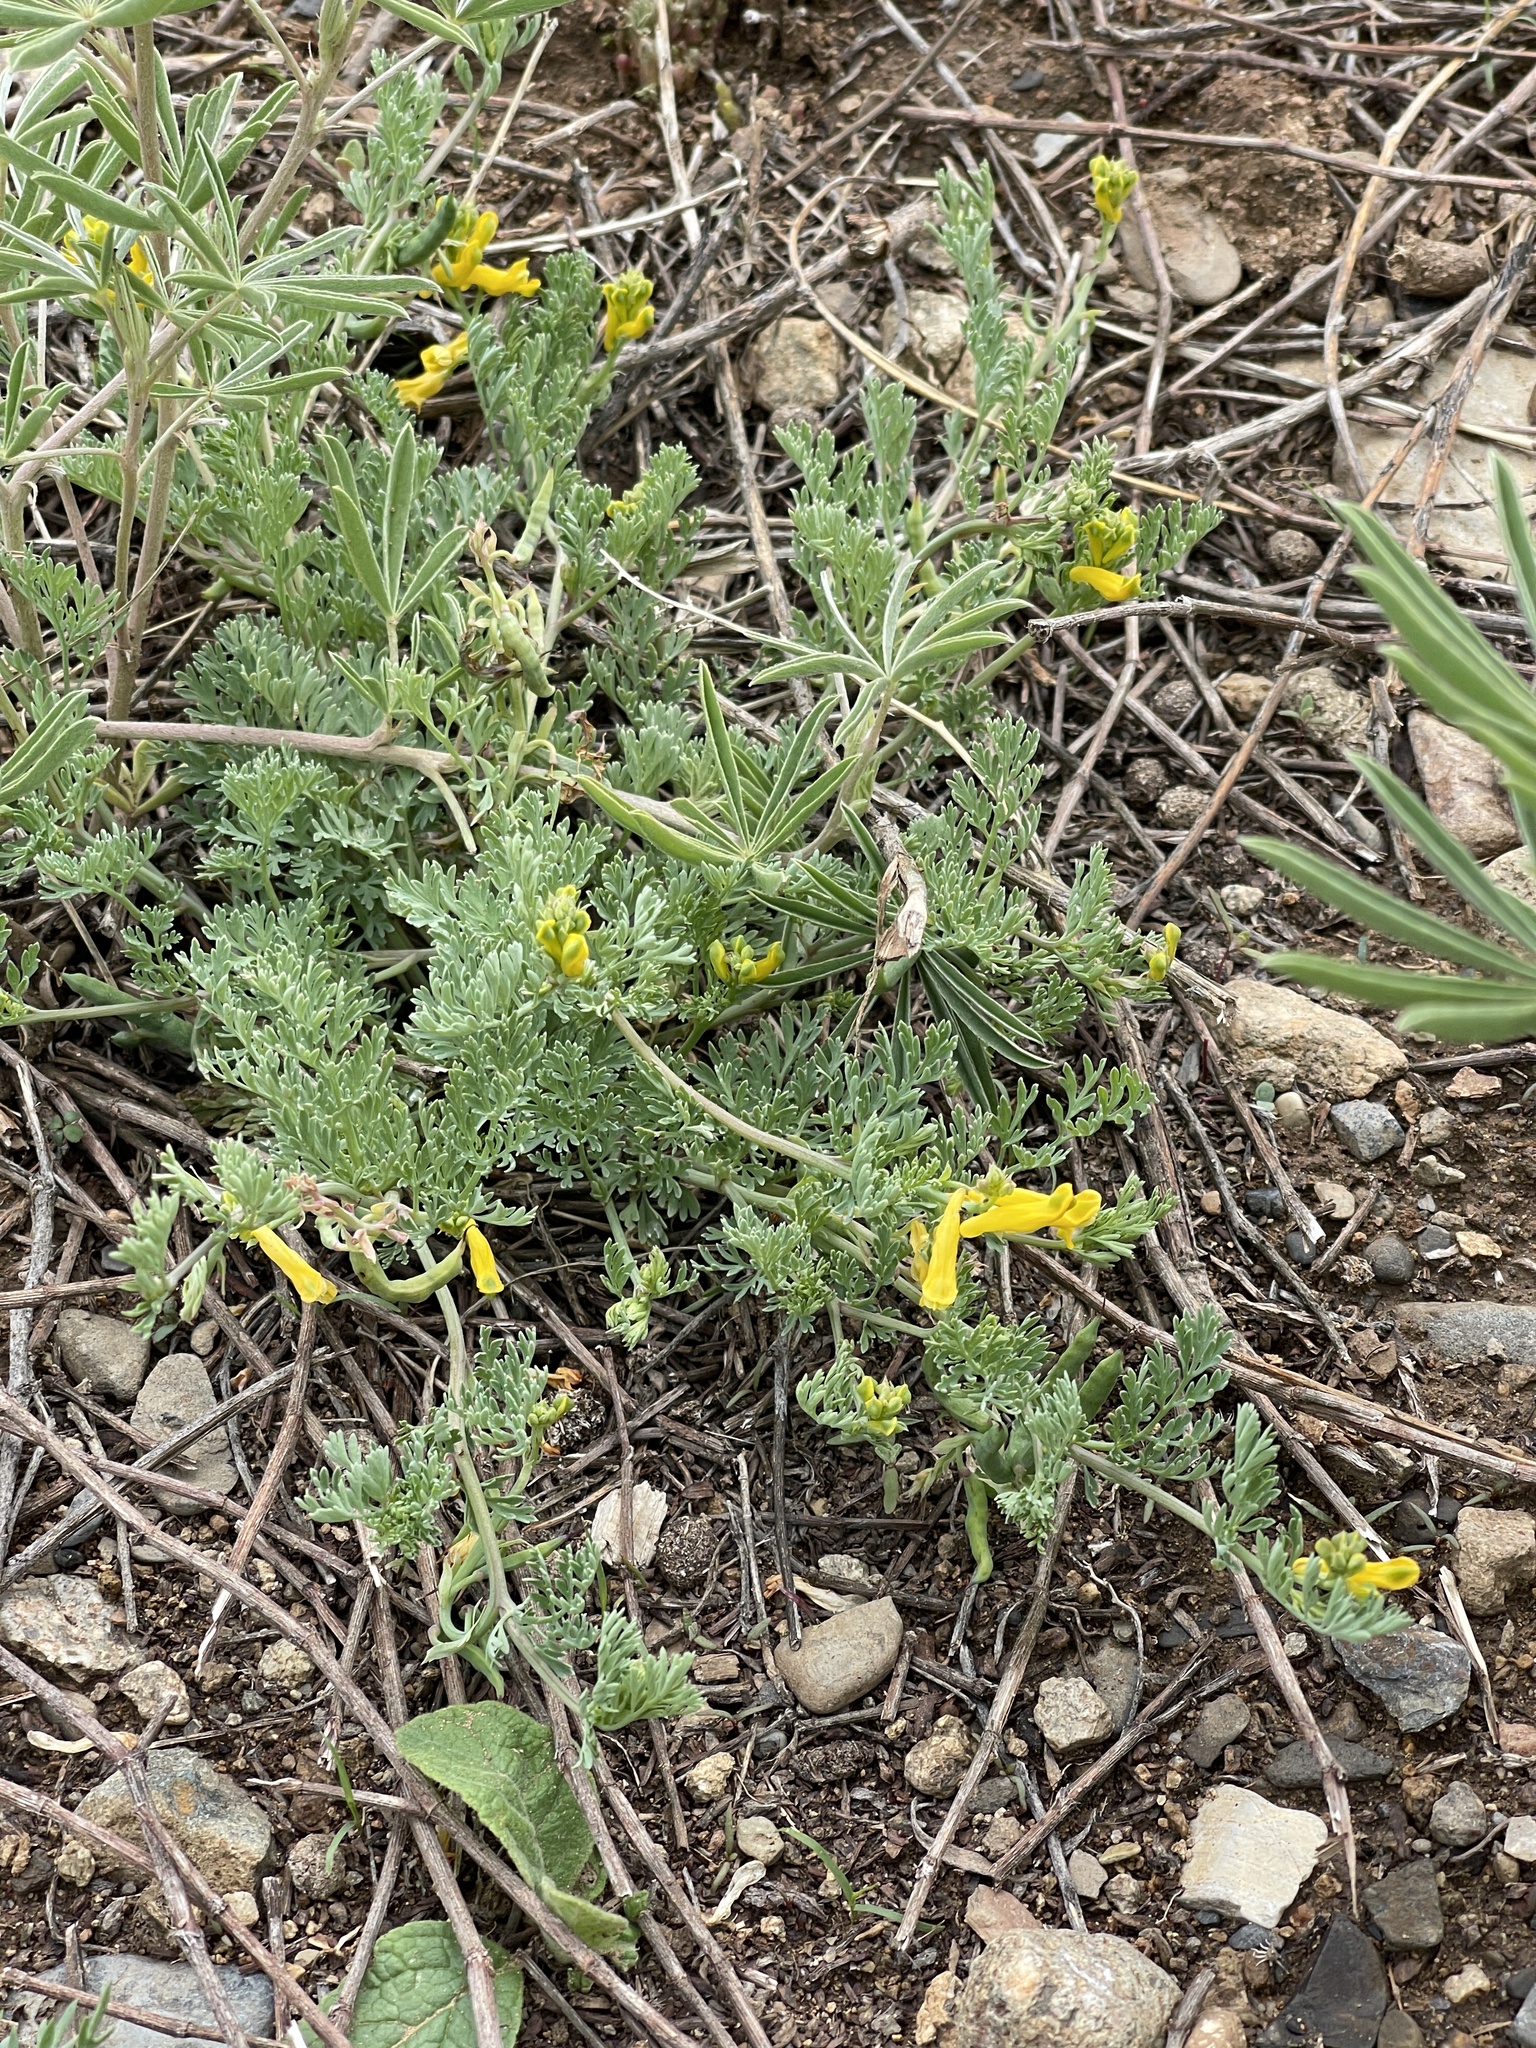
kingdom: Plantae
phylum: Tracheophyta
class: Magnoliopsida
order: Ranunculales
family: Papaveraceae
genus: Corydalis
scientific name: Corydalis aurea
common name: Golden corydalis
